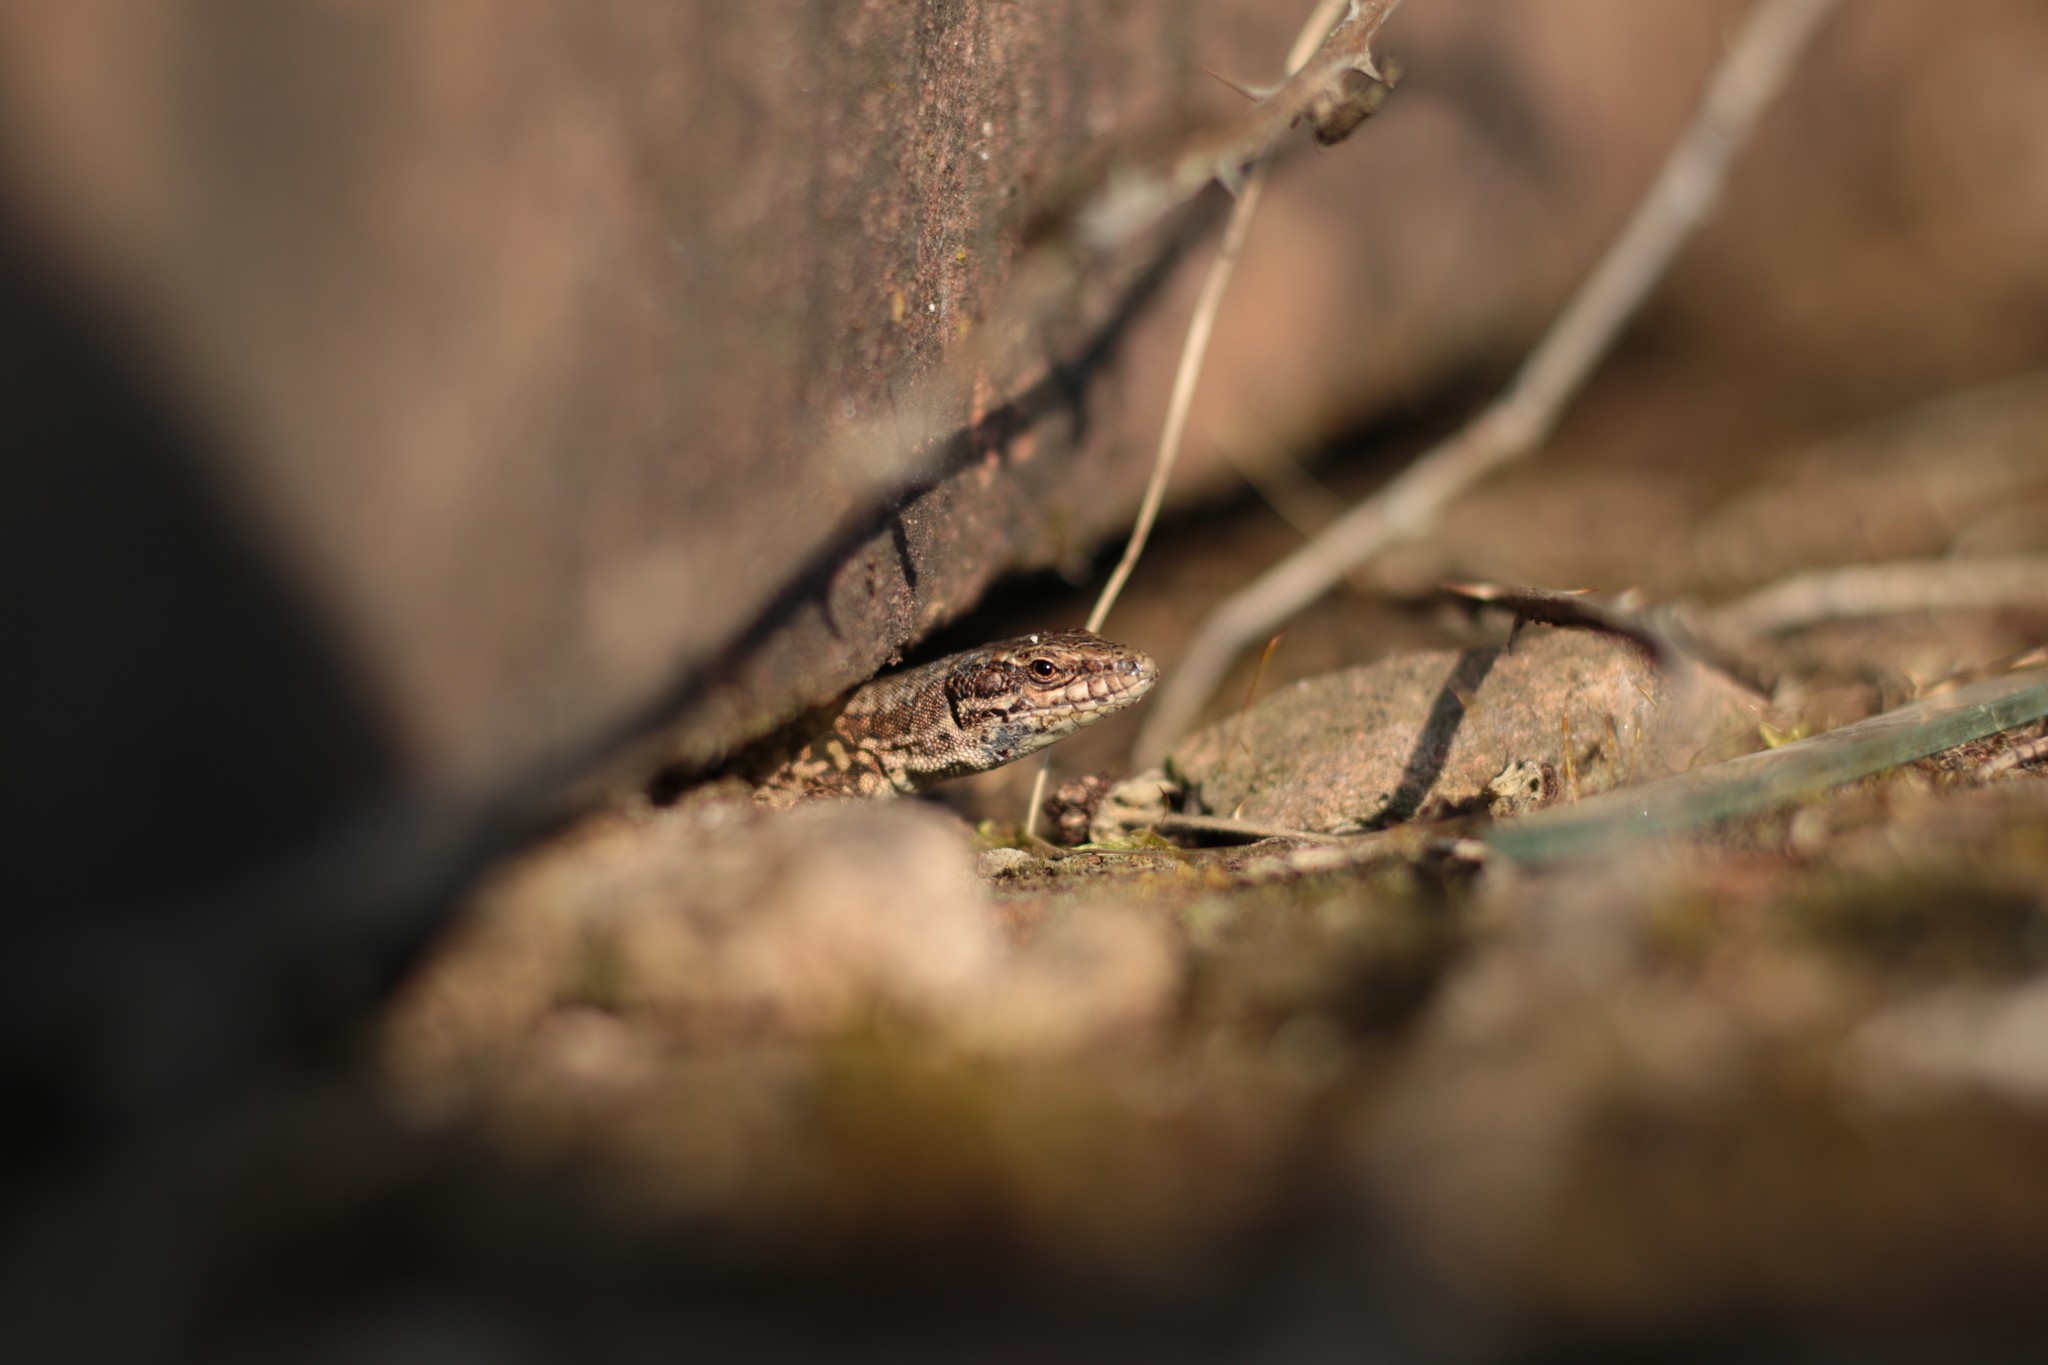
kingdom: Animalia
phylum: Chordata
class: Squamata
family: Lacertidae
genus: Podarcis
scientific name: Podarcis muralis
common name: Common wall lizard
